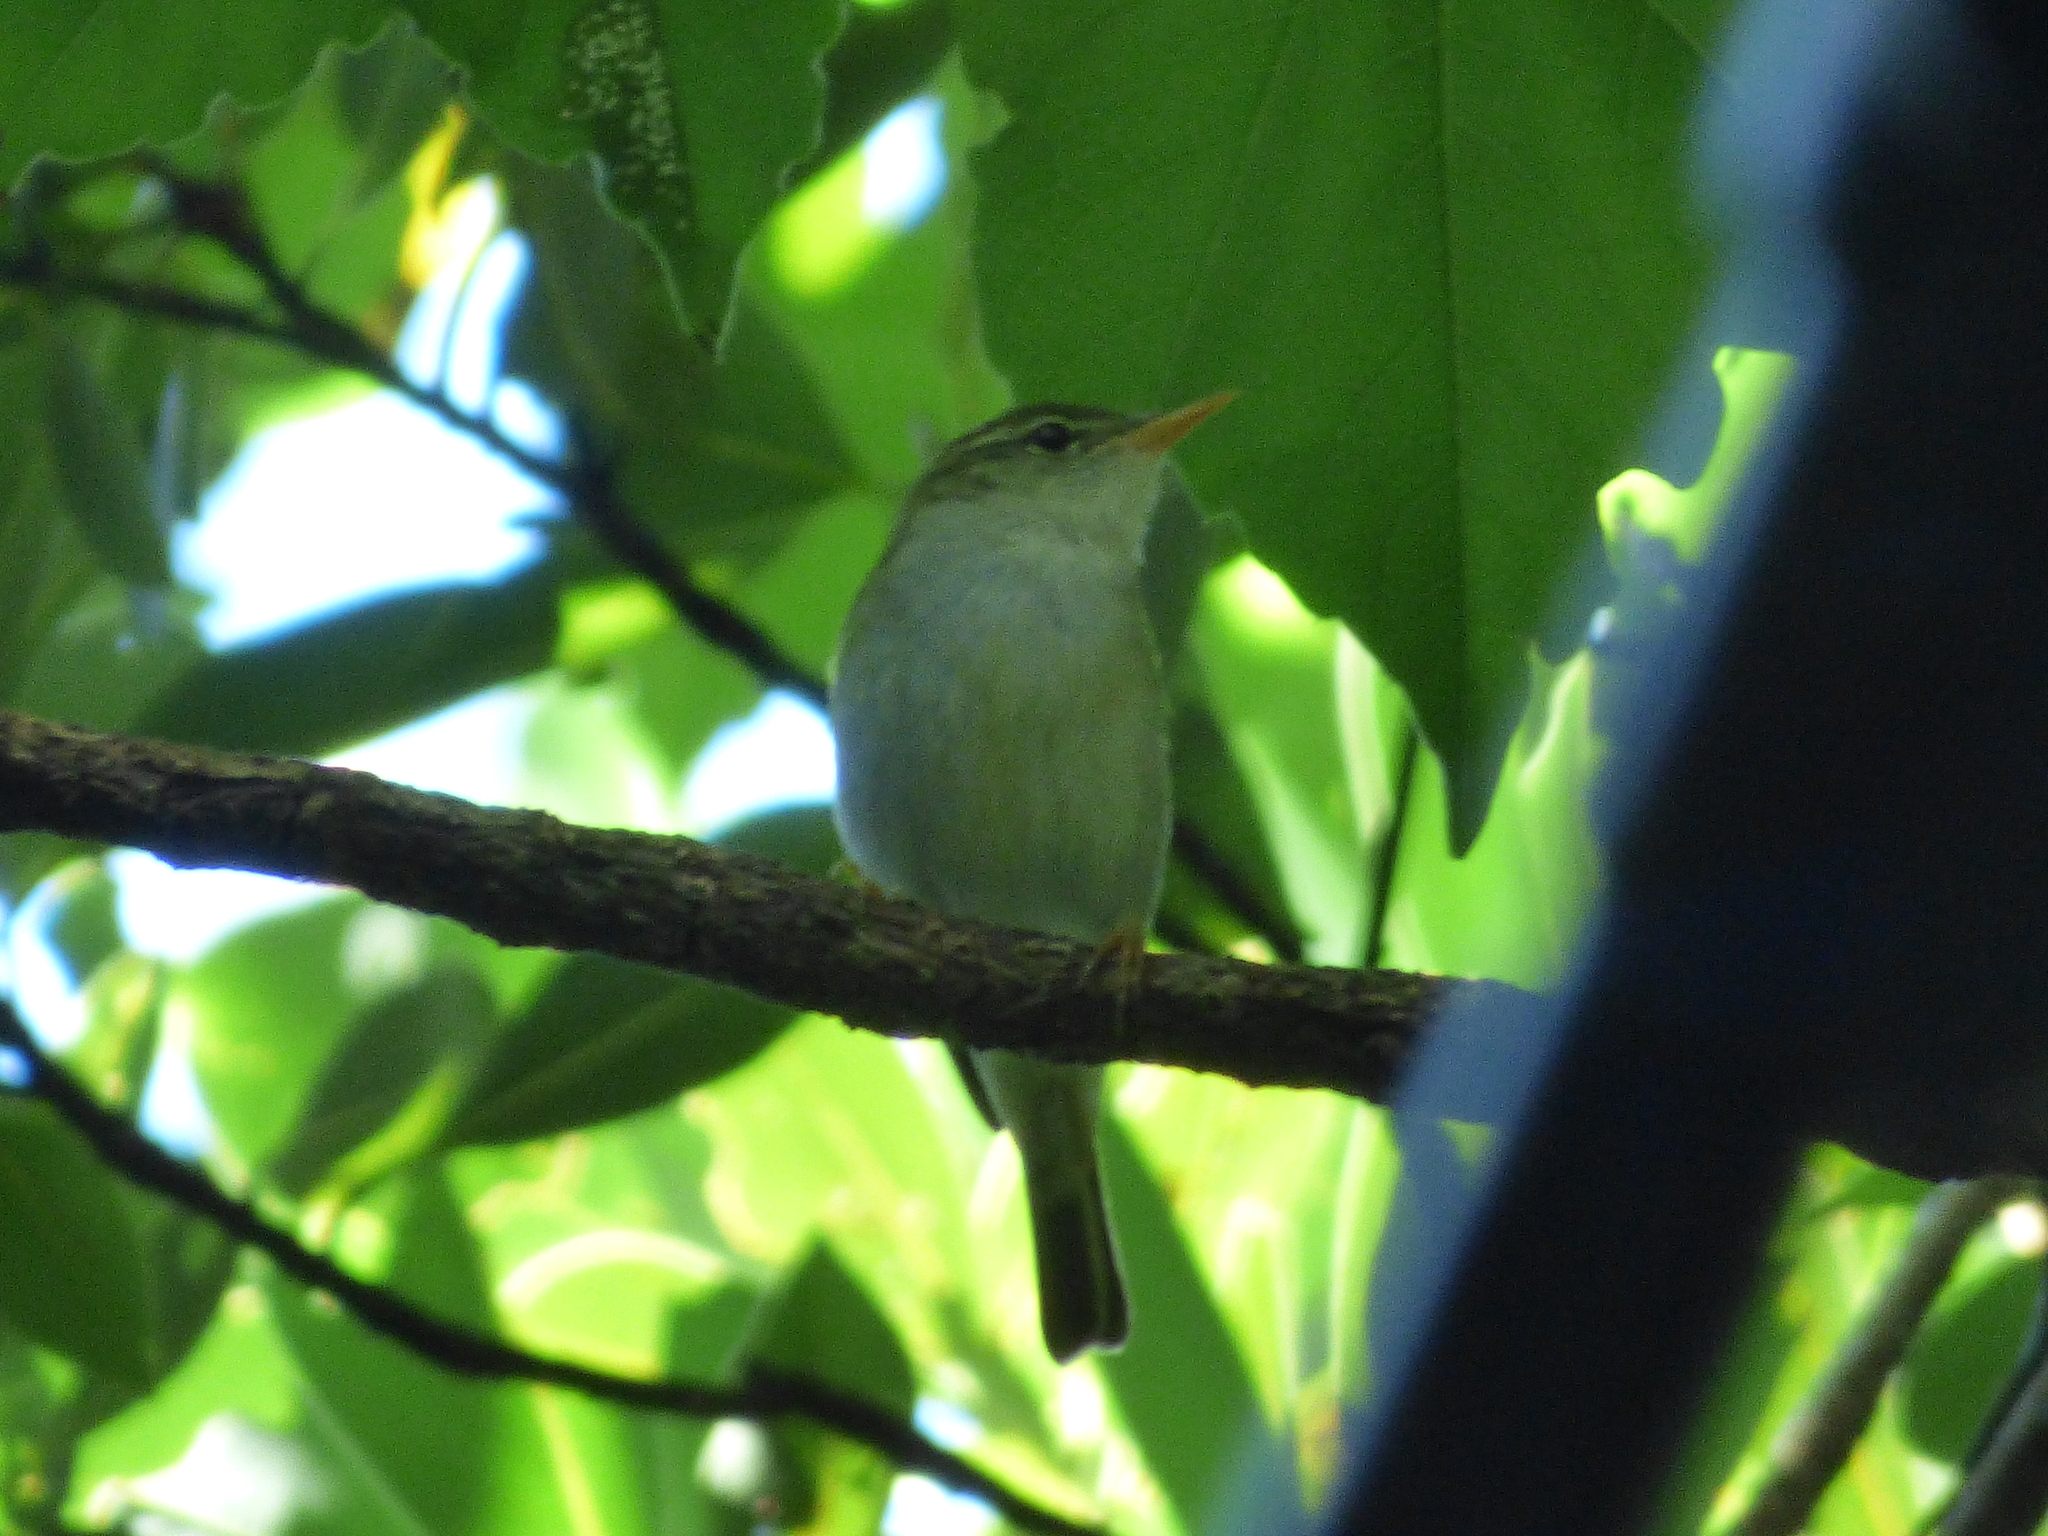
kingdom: Animalia
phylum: Chordata
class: Aves
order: Passeriformes
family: Phylloscopidae
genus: Phylloscopus
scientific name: Phylloscopus ijimae
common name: Ijima's leaf warbler
